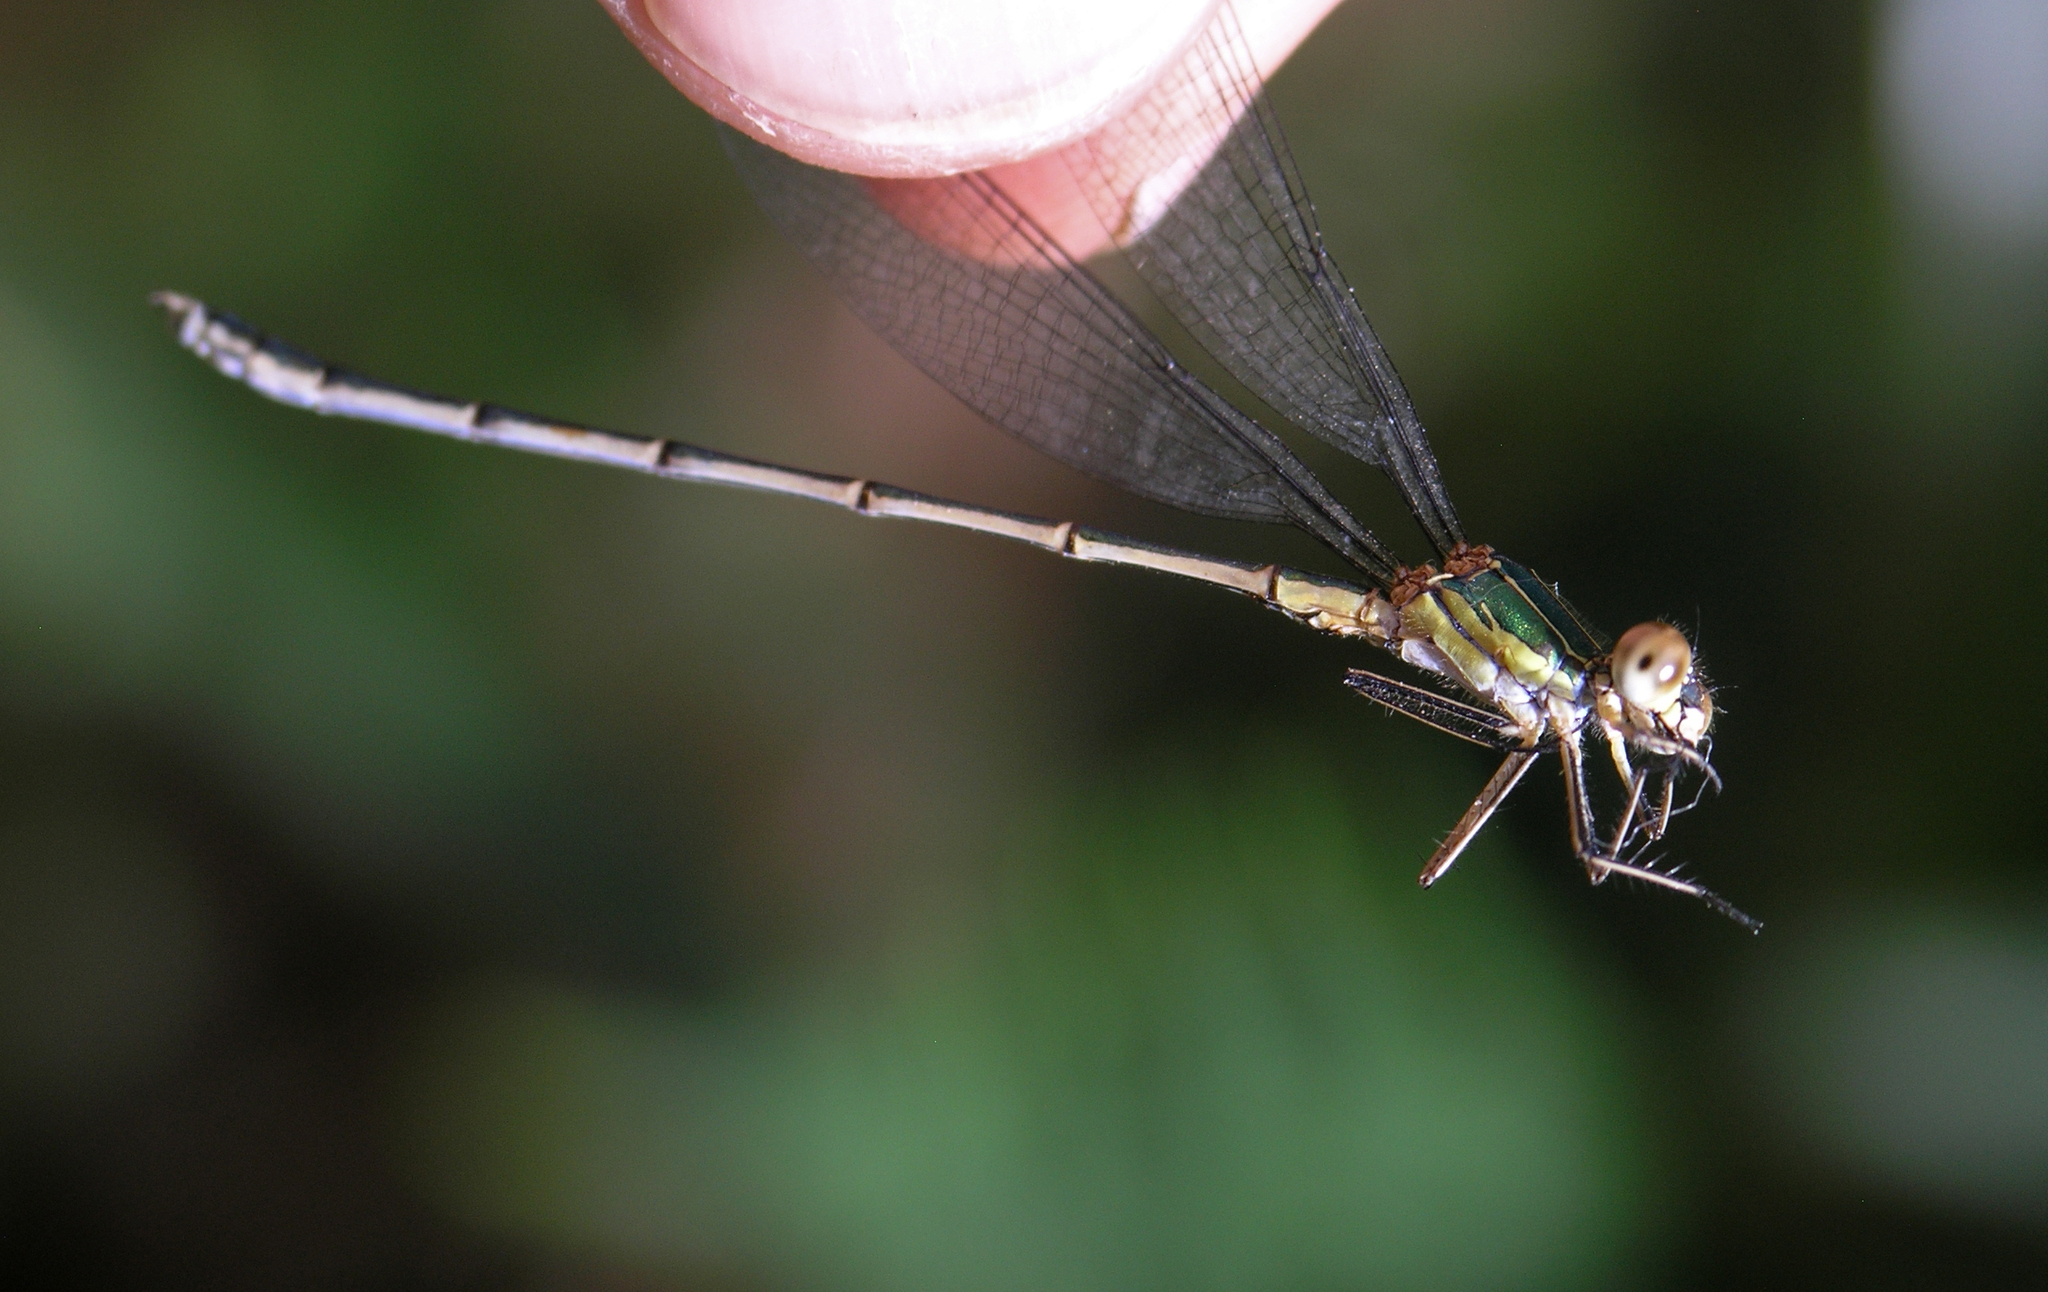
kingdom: Animalia
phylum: Arthropoda
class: Insecta
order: Odonata
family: Lestidae
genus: Chalcolestes
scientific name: Chalcolestes viridis
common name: Green emerald damselfly
